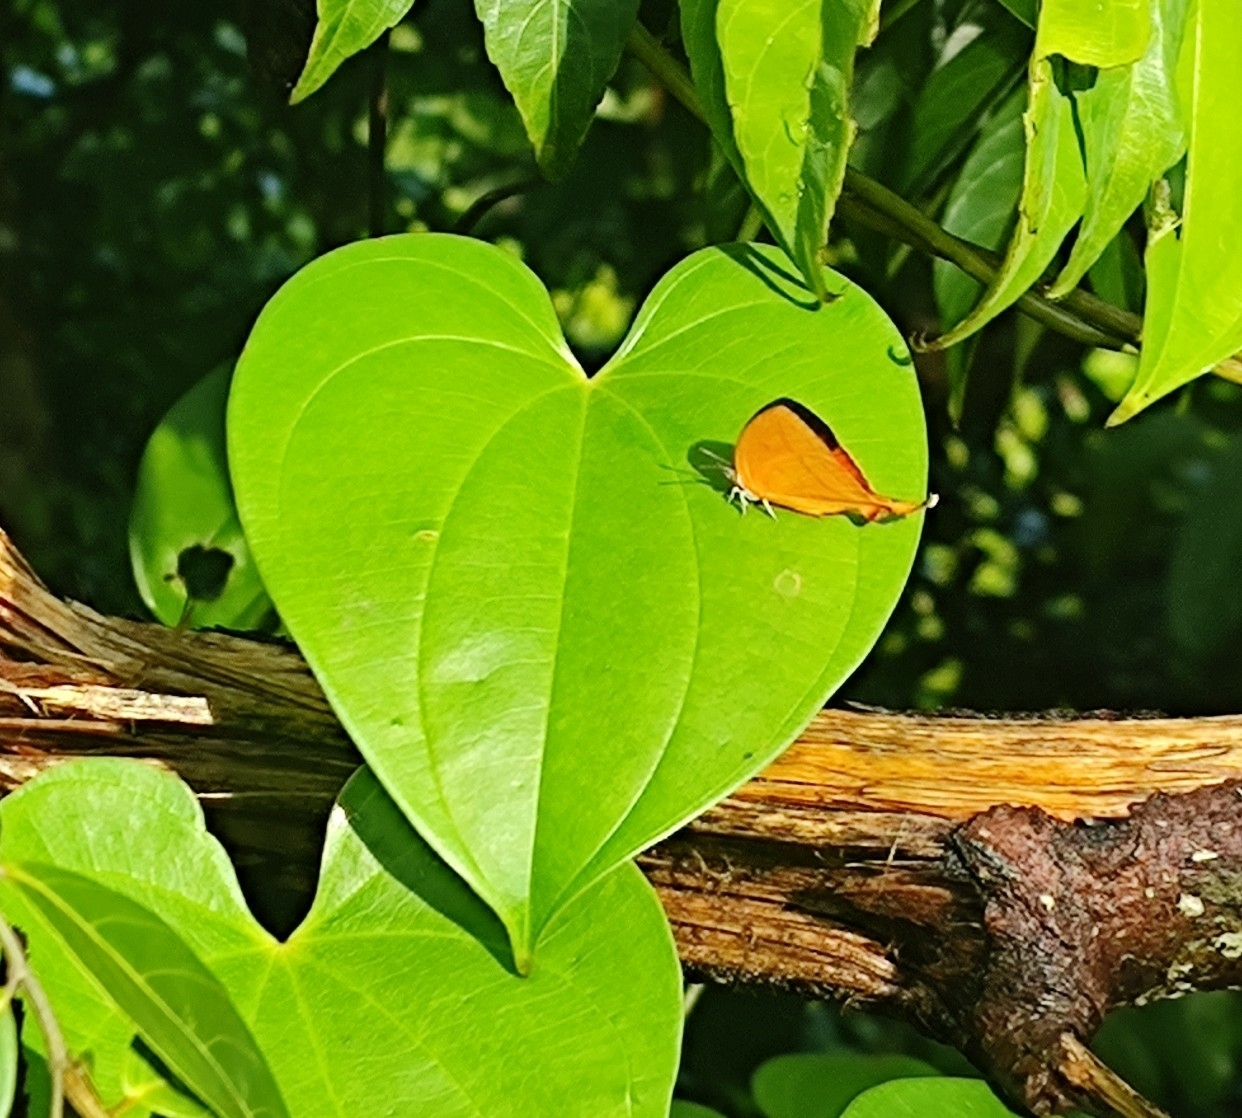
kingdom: Animalia
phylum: Arthropoda
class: Insecta
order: Lepidoptera
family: Lycaenidae
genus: Loxura
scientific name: Loxura atymnus
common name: Common yamfly
